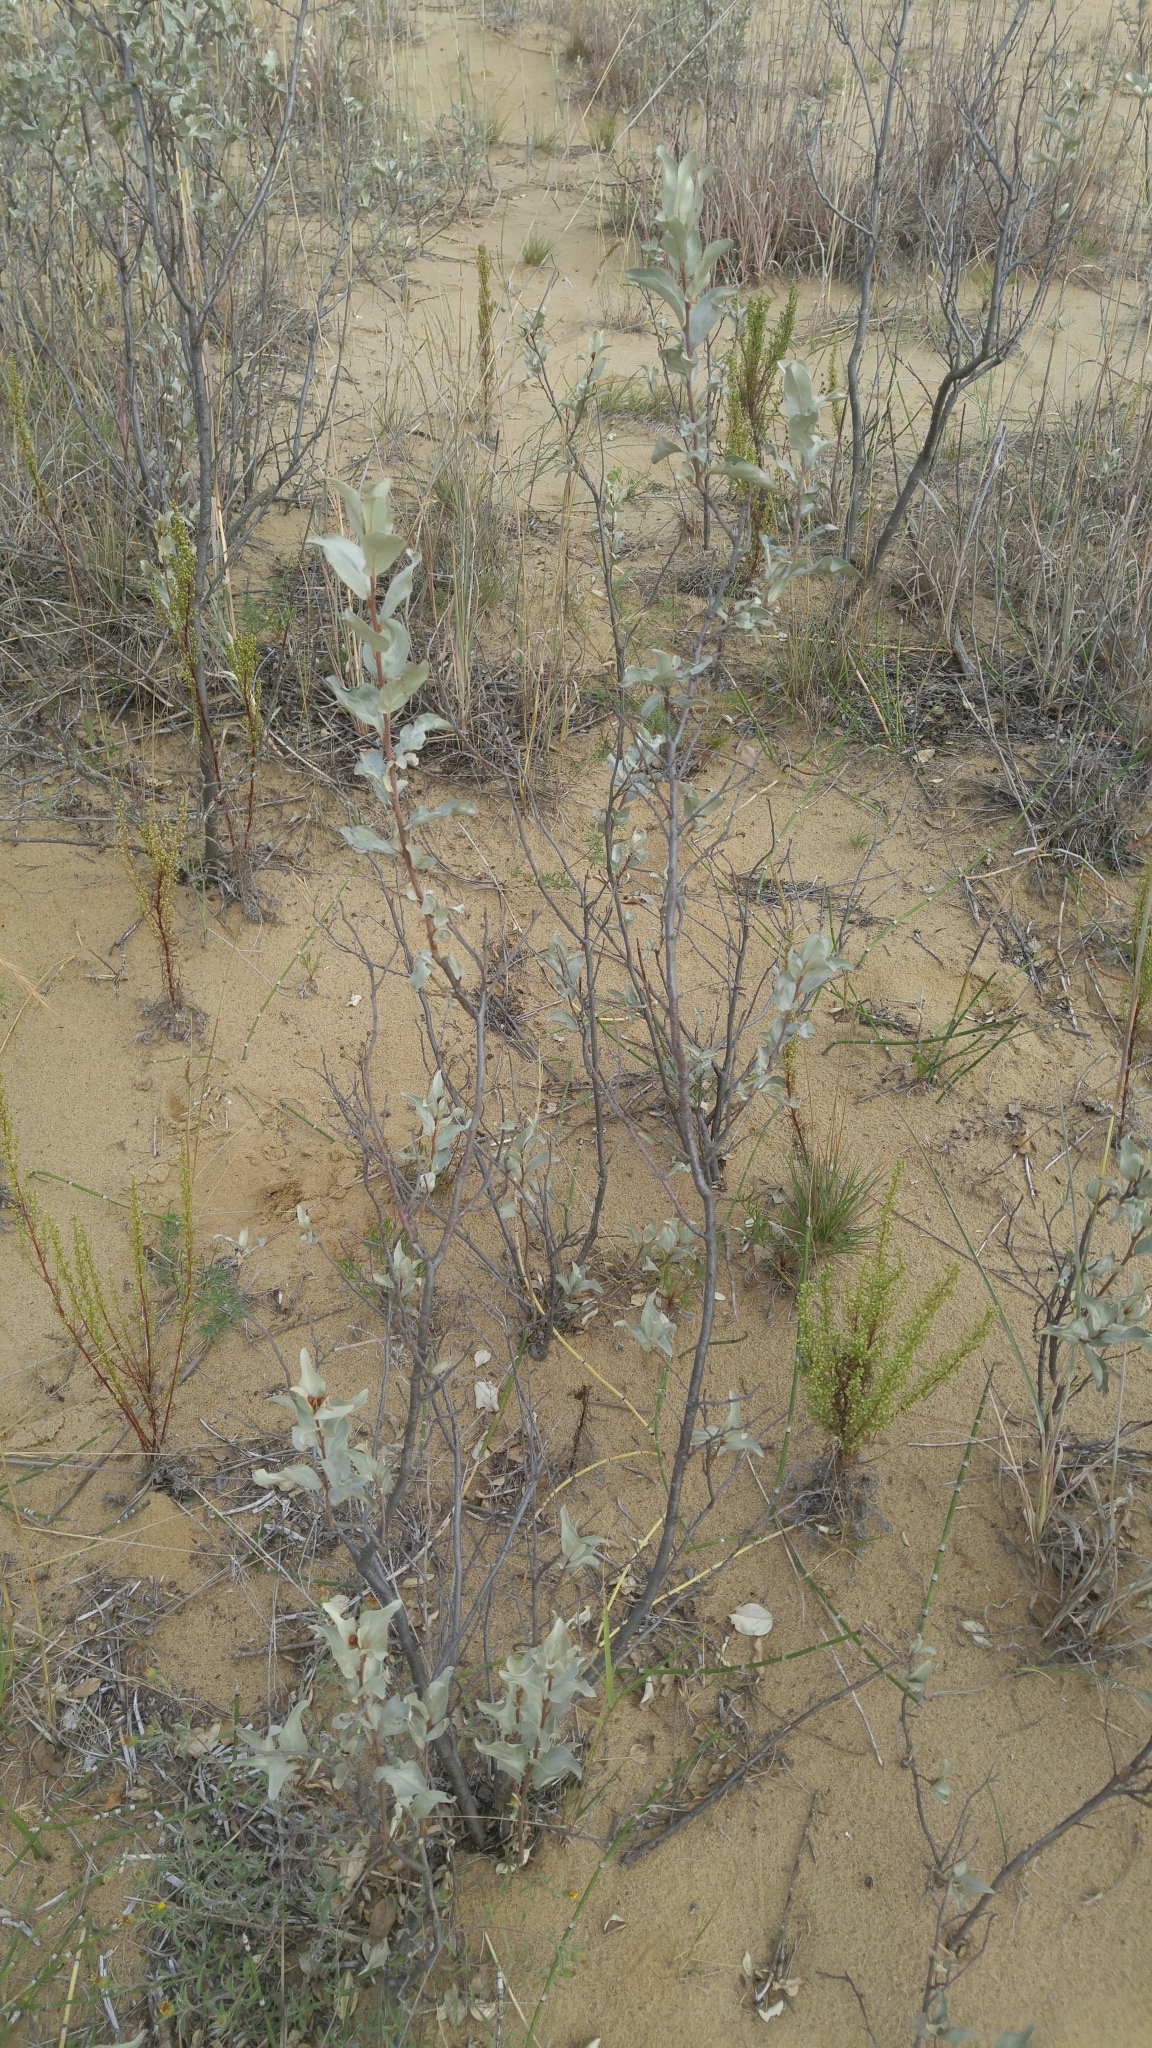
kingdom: Plantae
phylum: Tracheophyta
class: Magnoliopsida
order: Rosales
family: Elaeagnaceae
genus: Elaeagnus
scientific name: Elaeagnus commutata
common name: Silverberry
